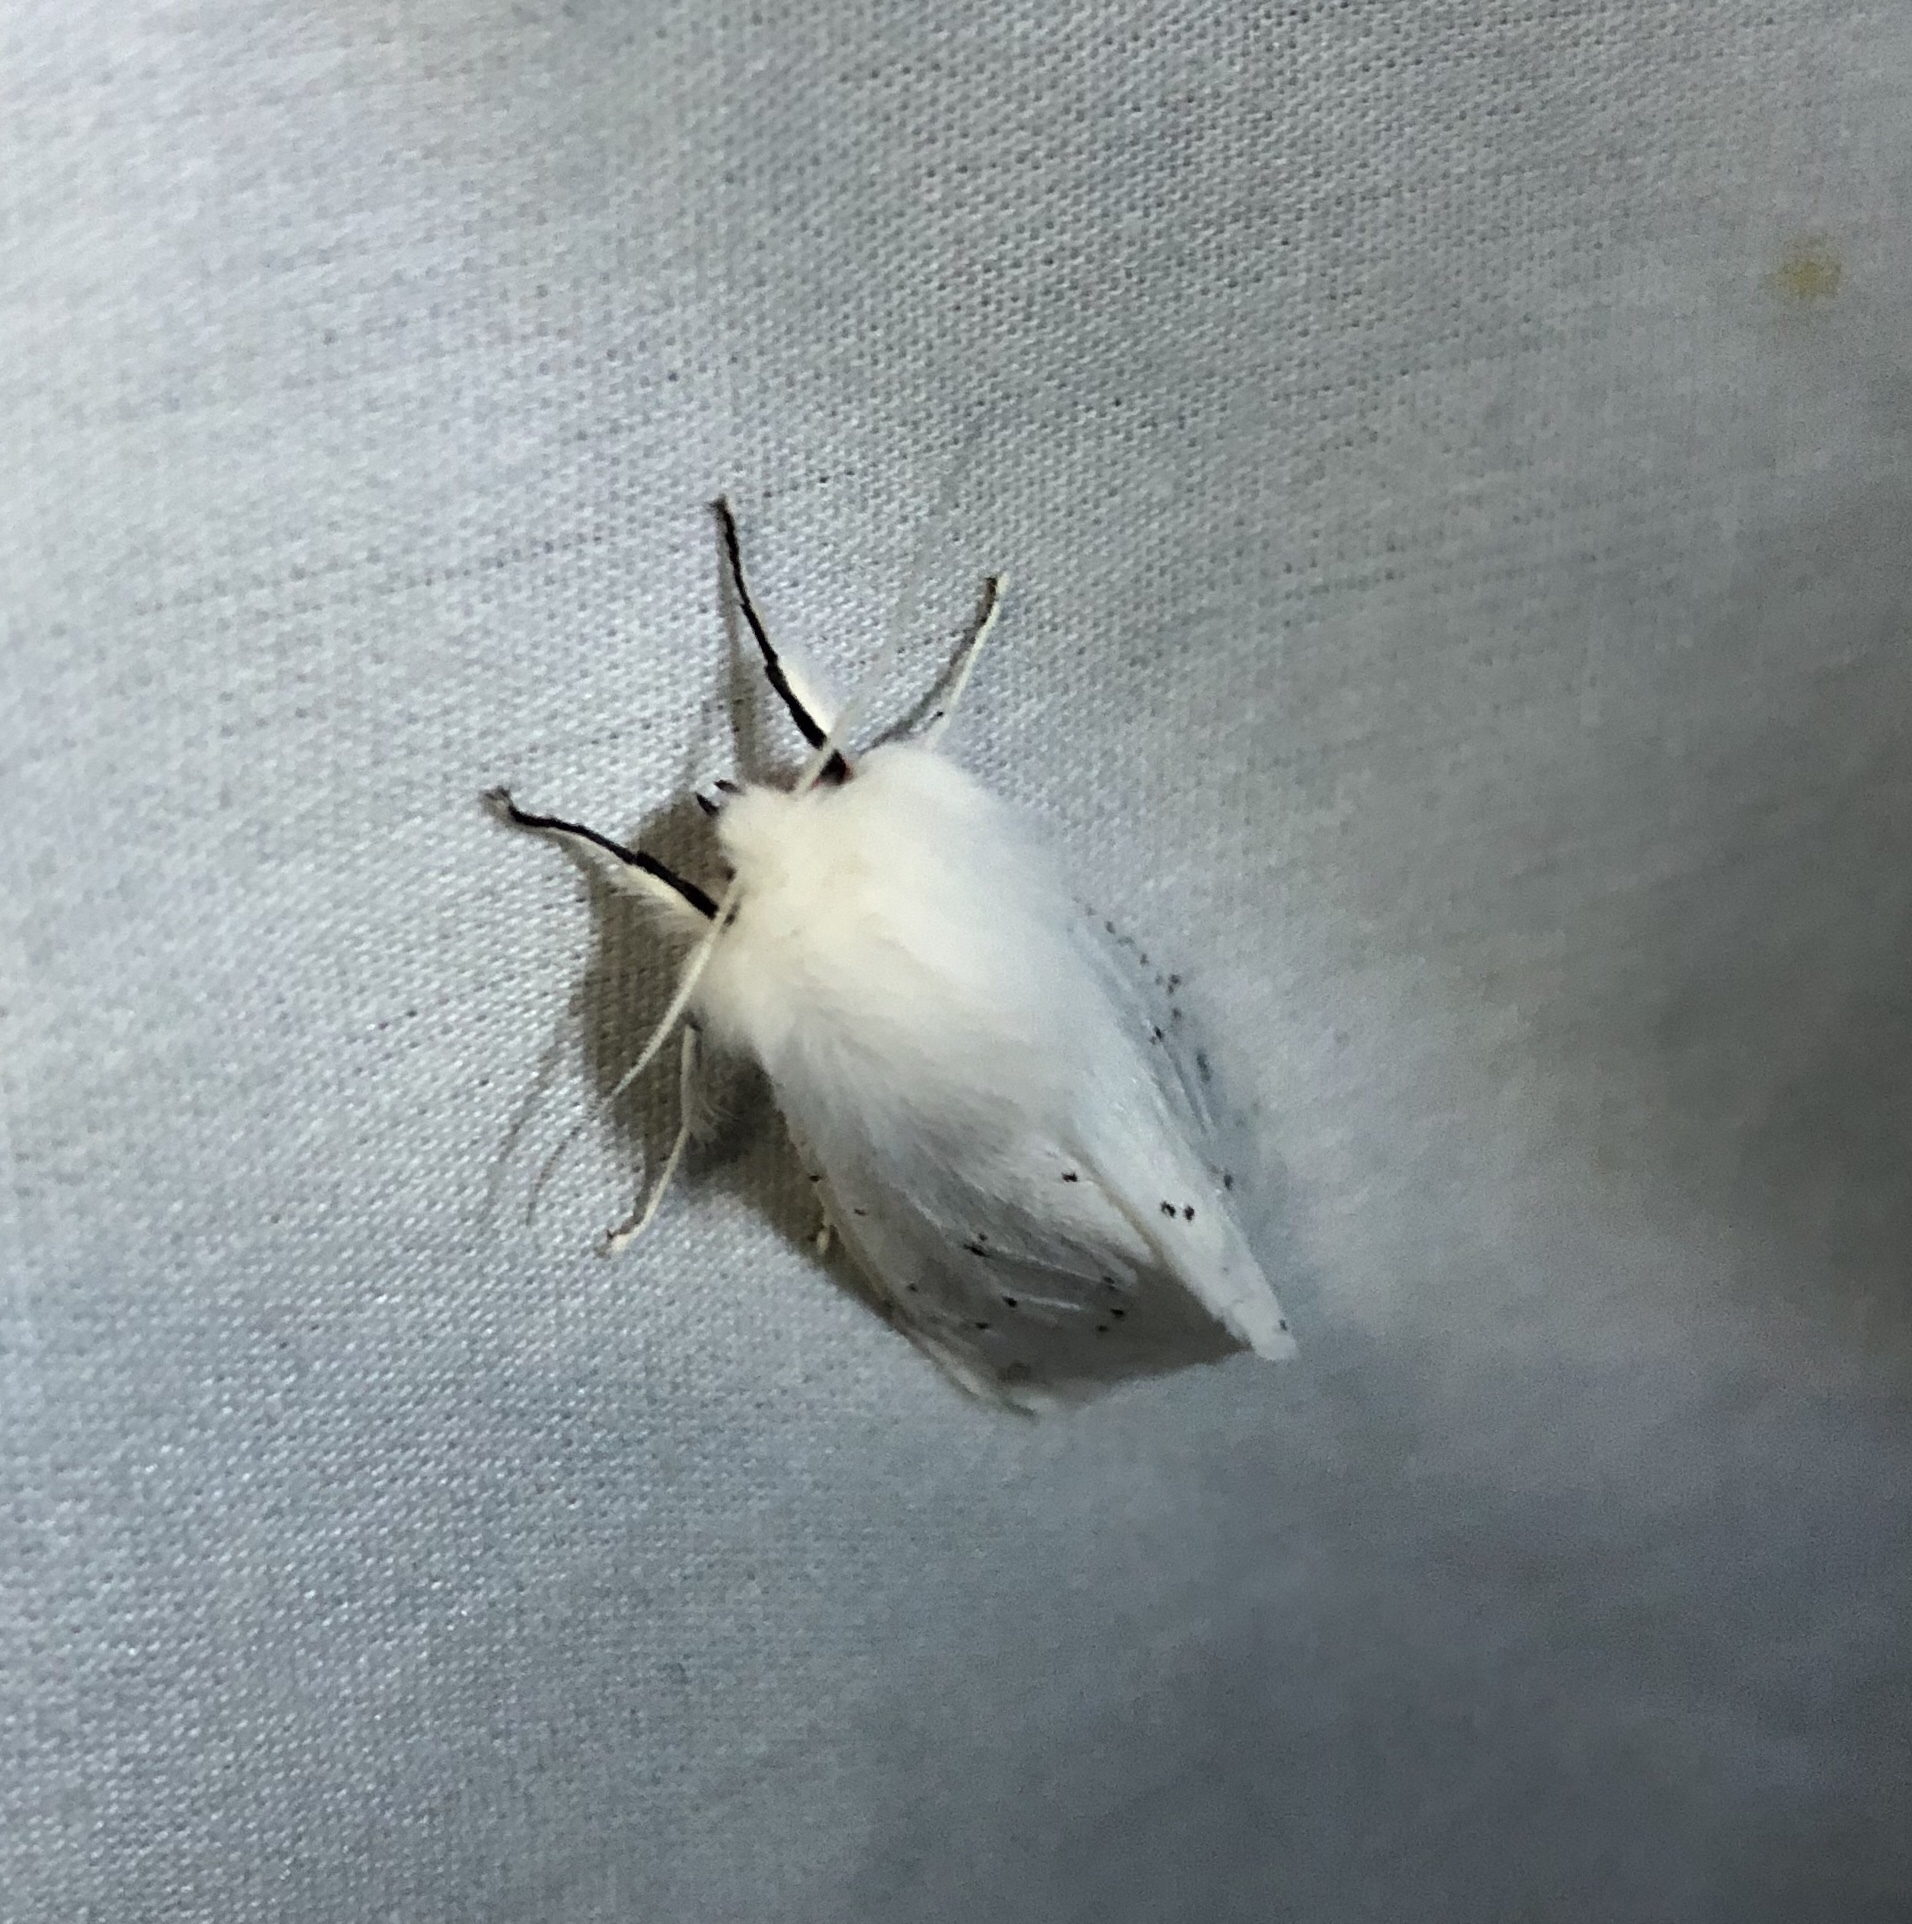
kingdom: Animalia
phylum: Arthropoda
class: Insecta
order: Lepidoptera
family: Erebidae
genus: Spilosoma
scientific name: Spilosoma vestalis
